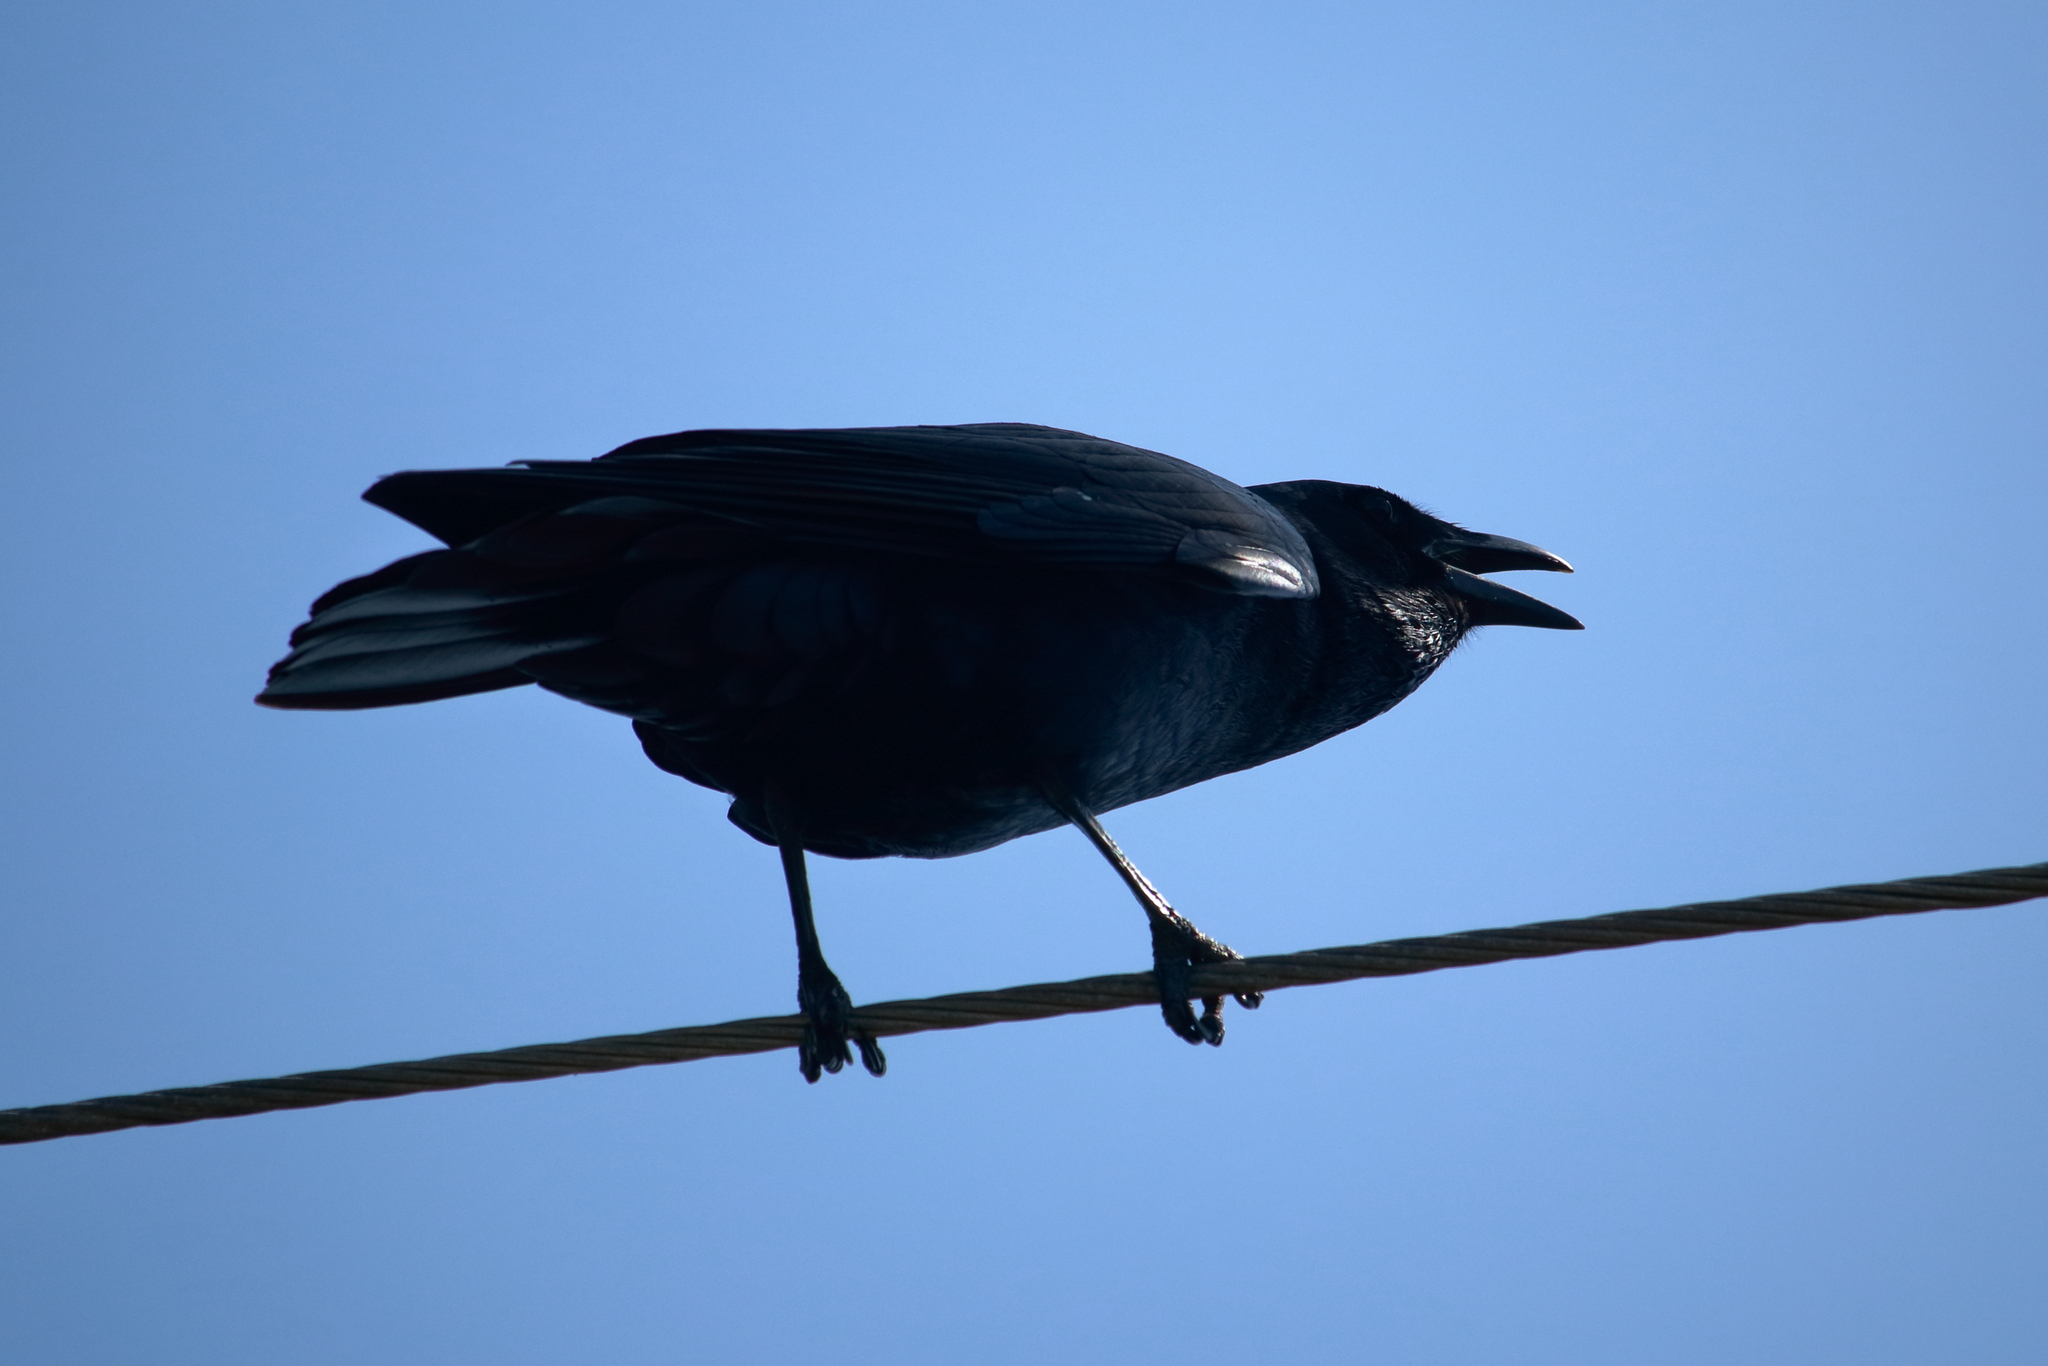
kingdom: Animalia
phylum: Chordata
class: Aves
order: Passeriformes
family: Corvidae
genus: Corvus
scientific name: Corvus ossifragus
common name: Fish crow
